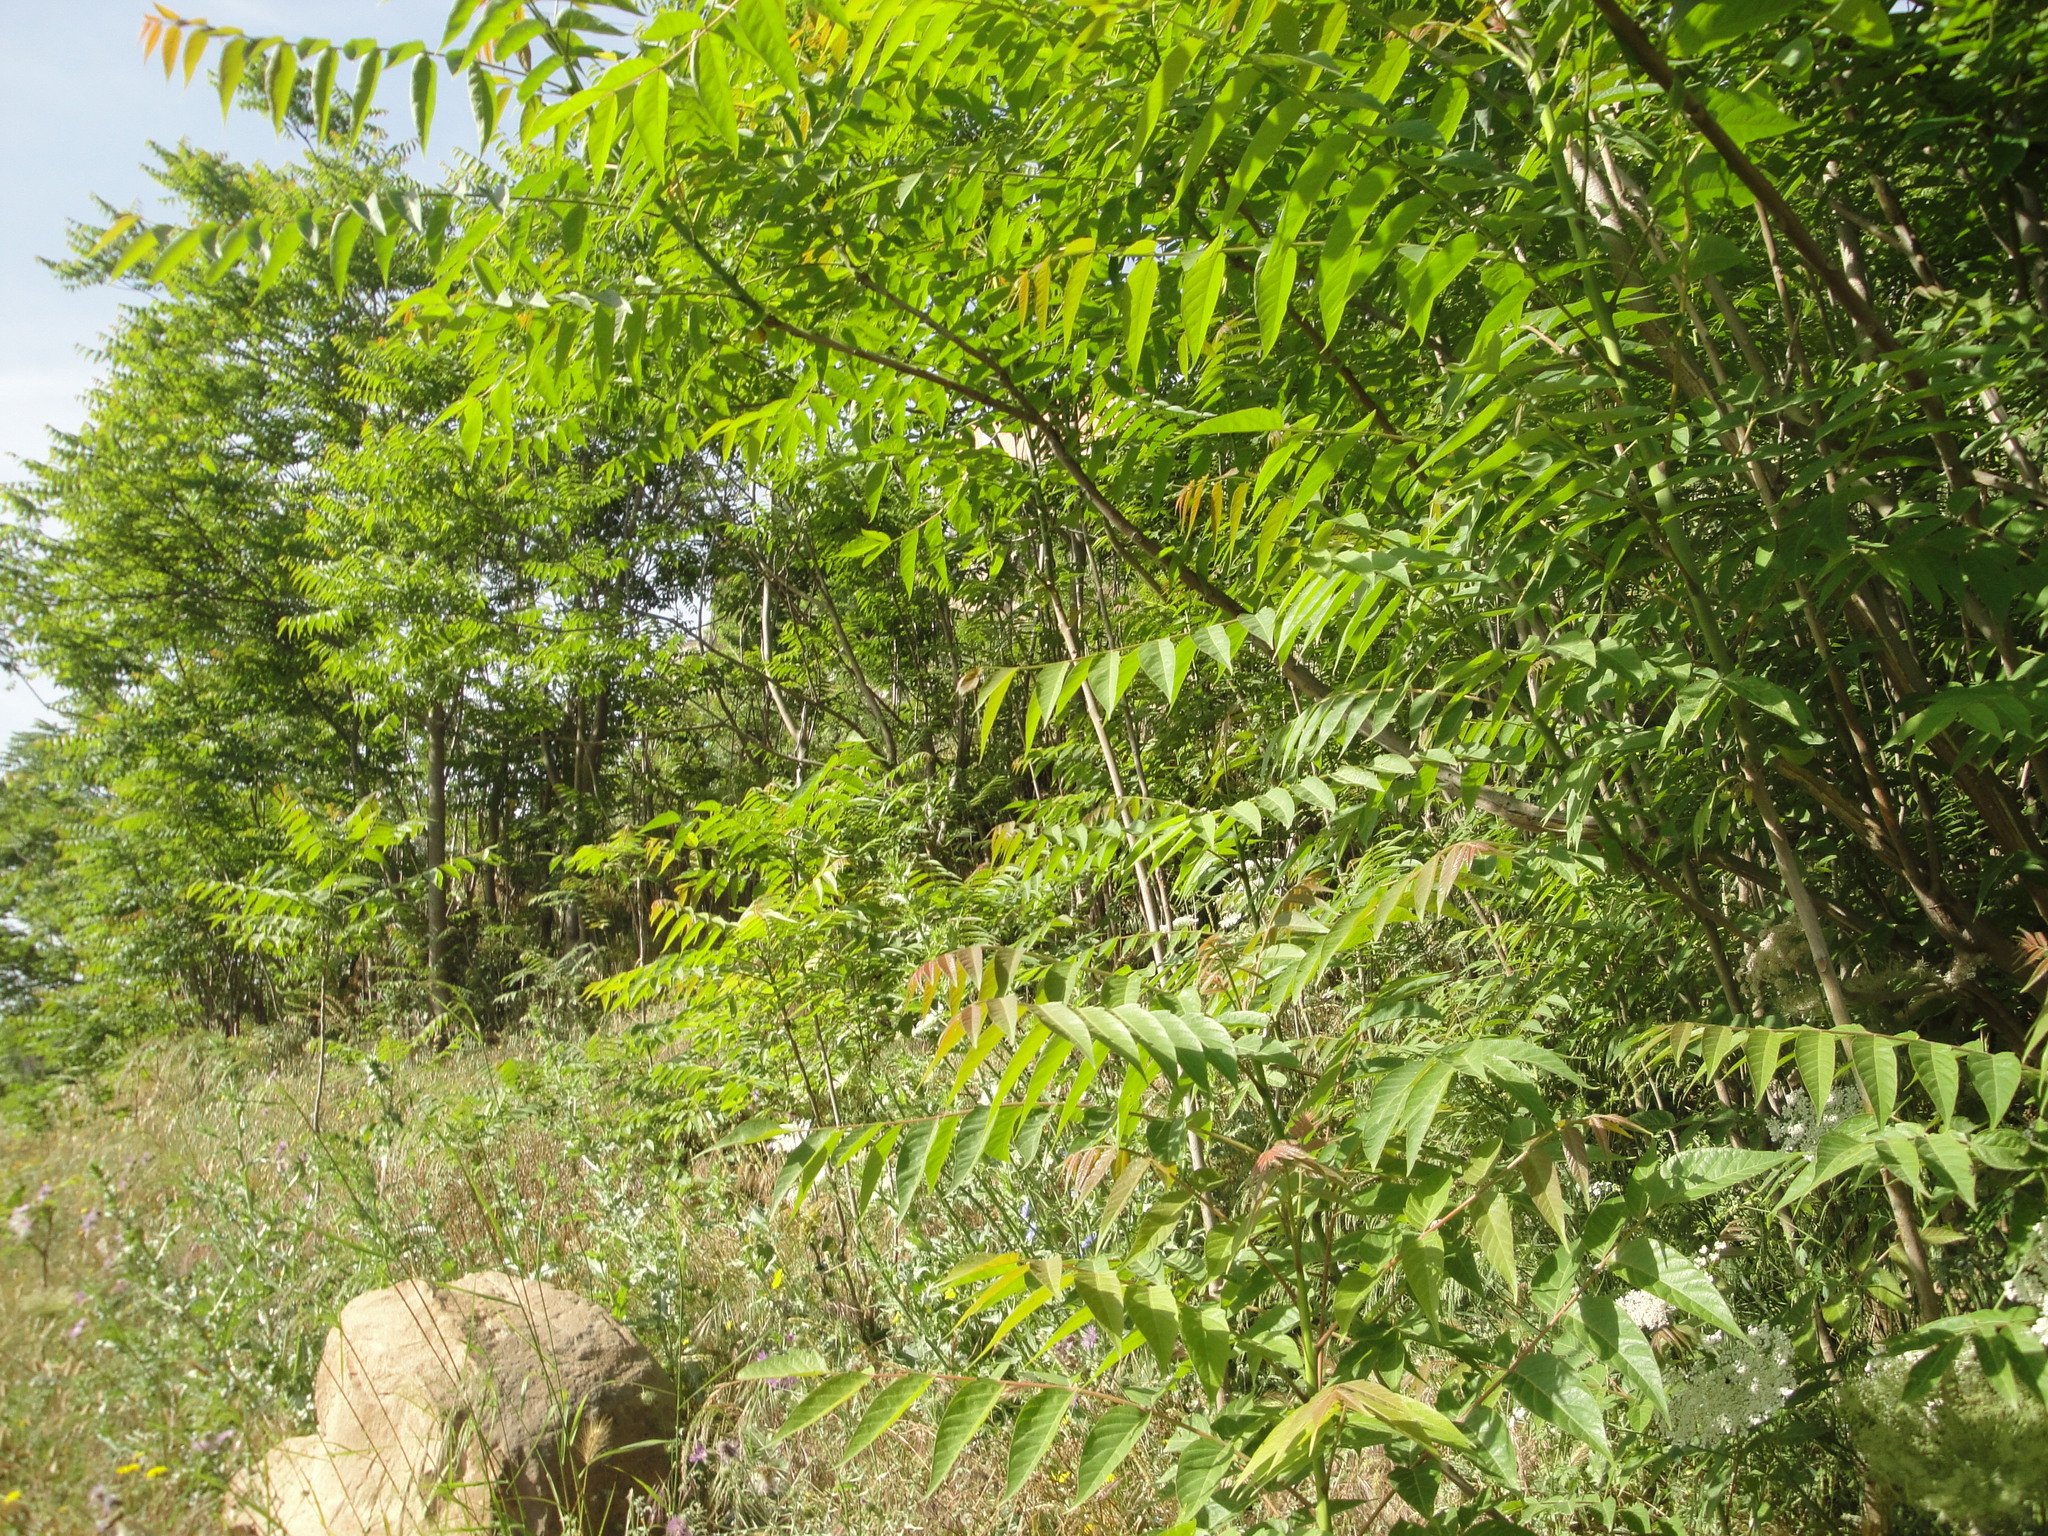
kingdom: Plantae
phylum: Tracheophyta
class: Magnoliopsida
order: Sapindales
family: Simaroubaceae
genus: Ailanthus
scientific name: Ailanthus altissima
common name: Tree-of-heaven
